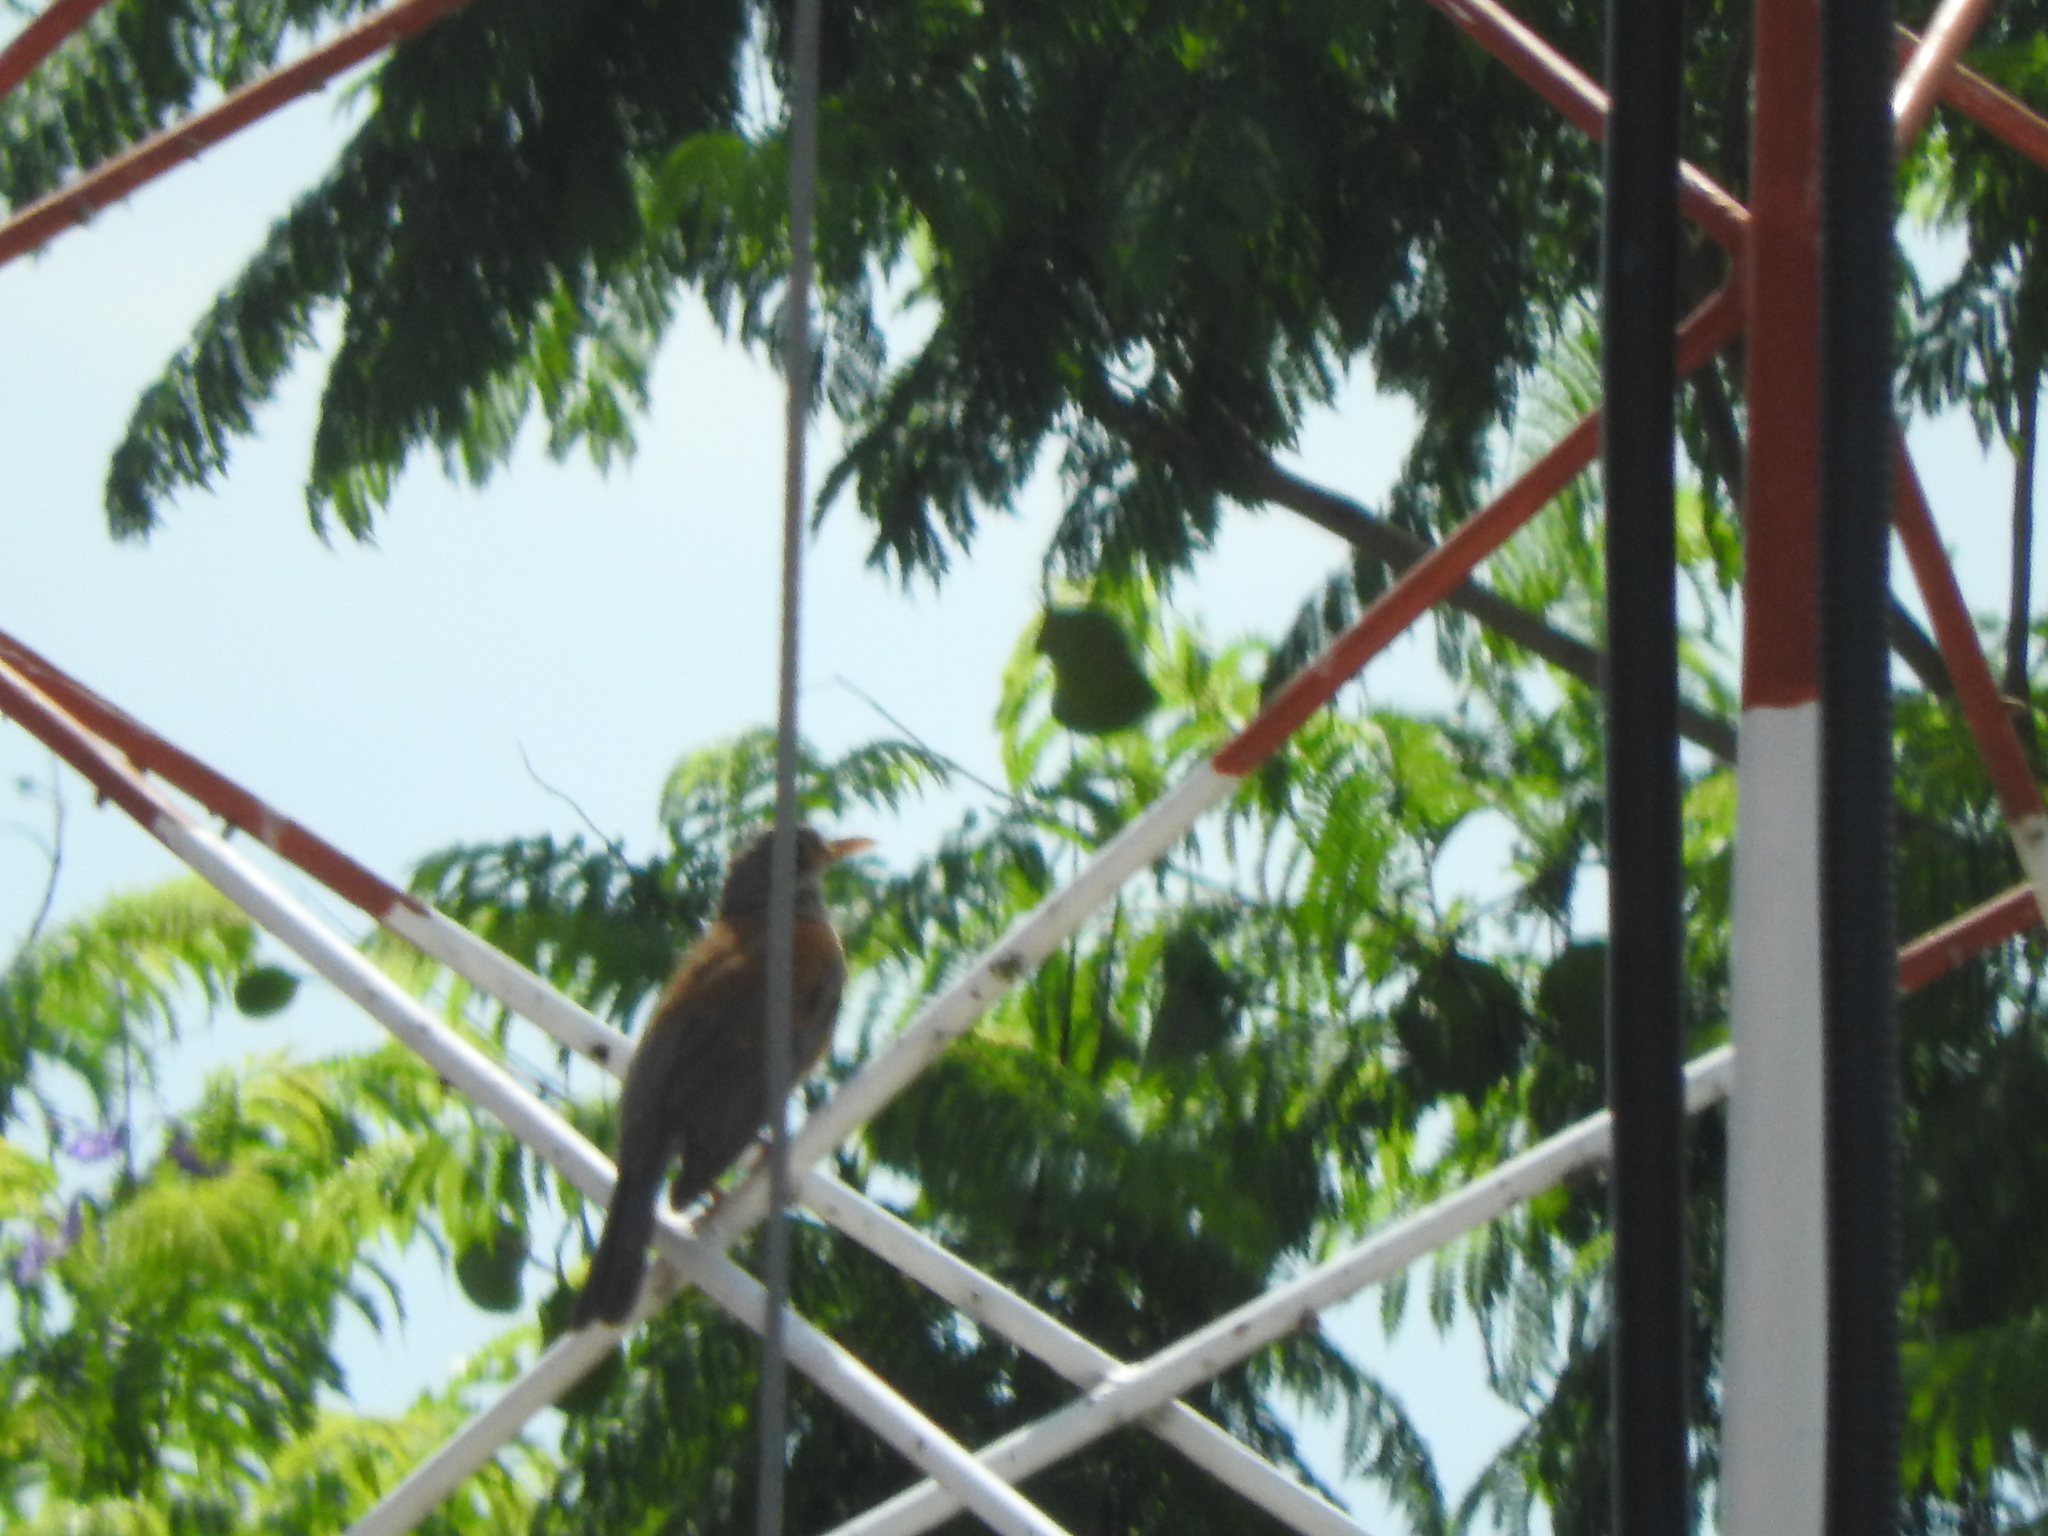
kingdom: Animalia
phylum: Chordata
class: Aves
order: Passeriformes
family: Turdidae
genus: Turdus
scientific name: Turdus rufopalliatus
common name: Rufous-backed robin
